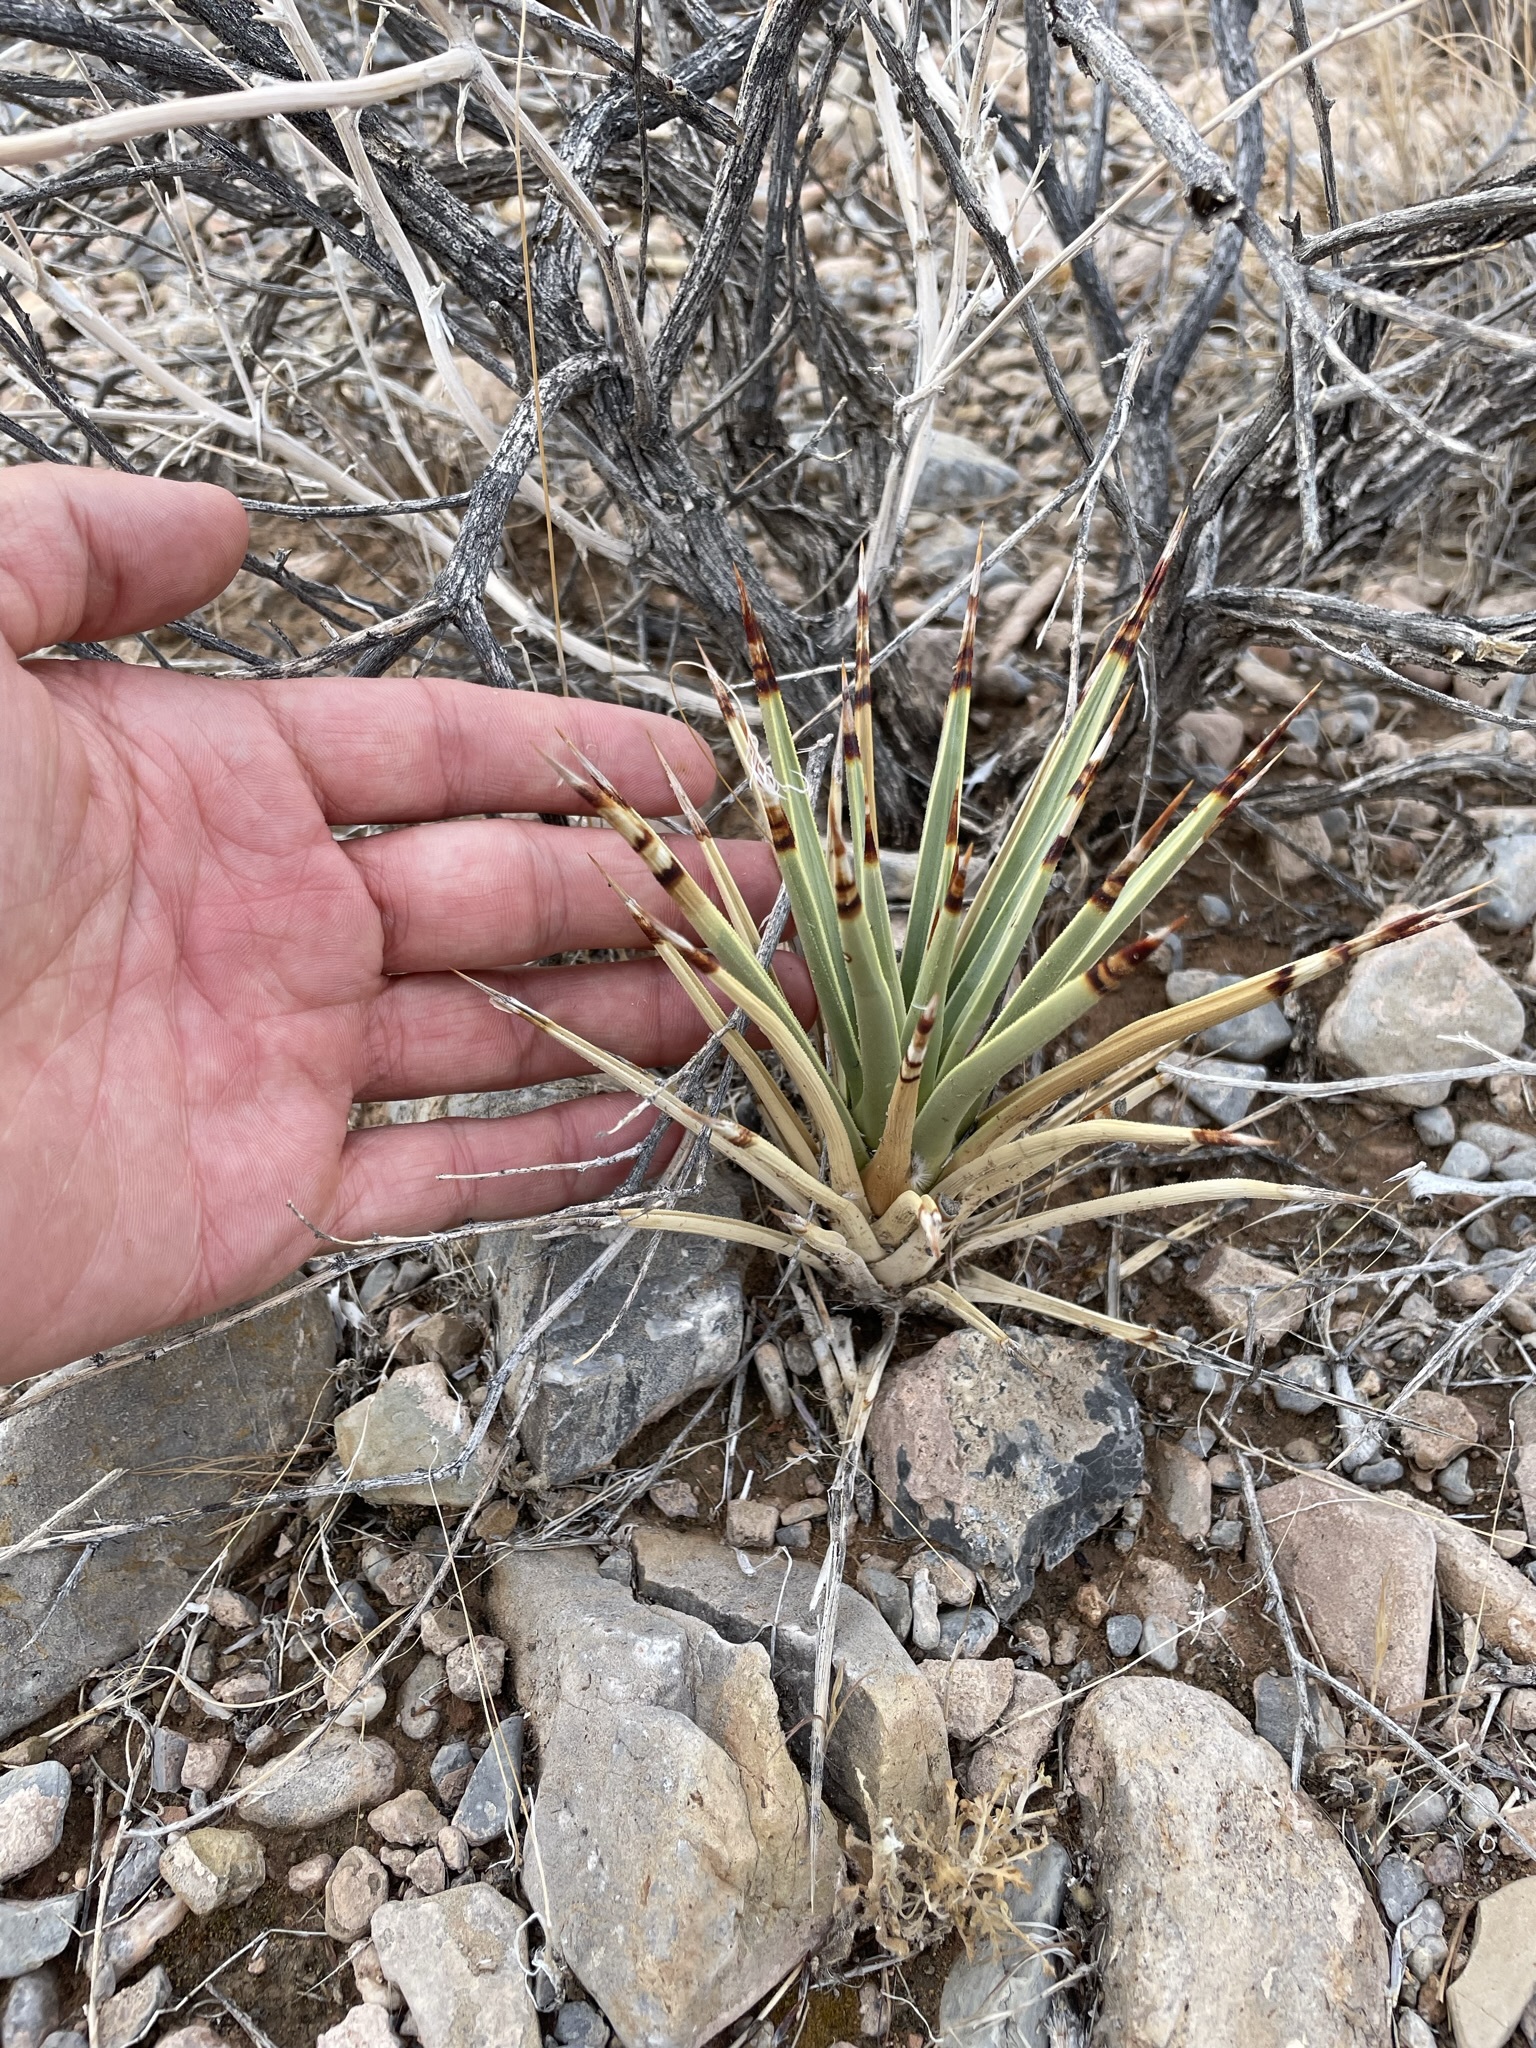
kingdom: Plantae
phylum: Tracheophyta
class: Liliopsida
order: Asparagales
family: Asparagaceae
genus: Yucca
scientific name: Yucca brevifolia
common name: Joshua tree
